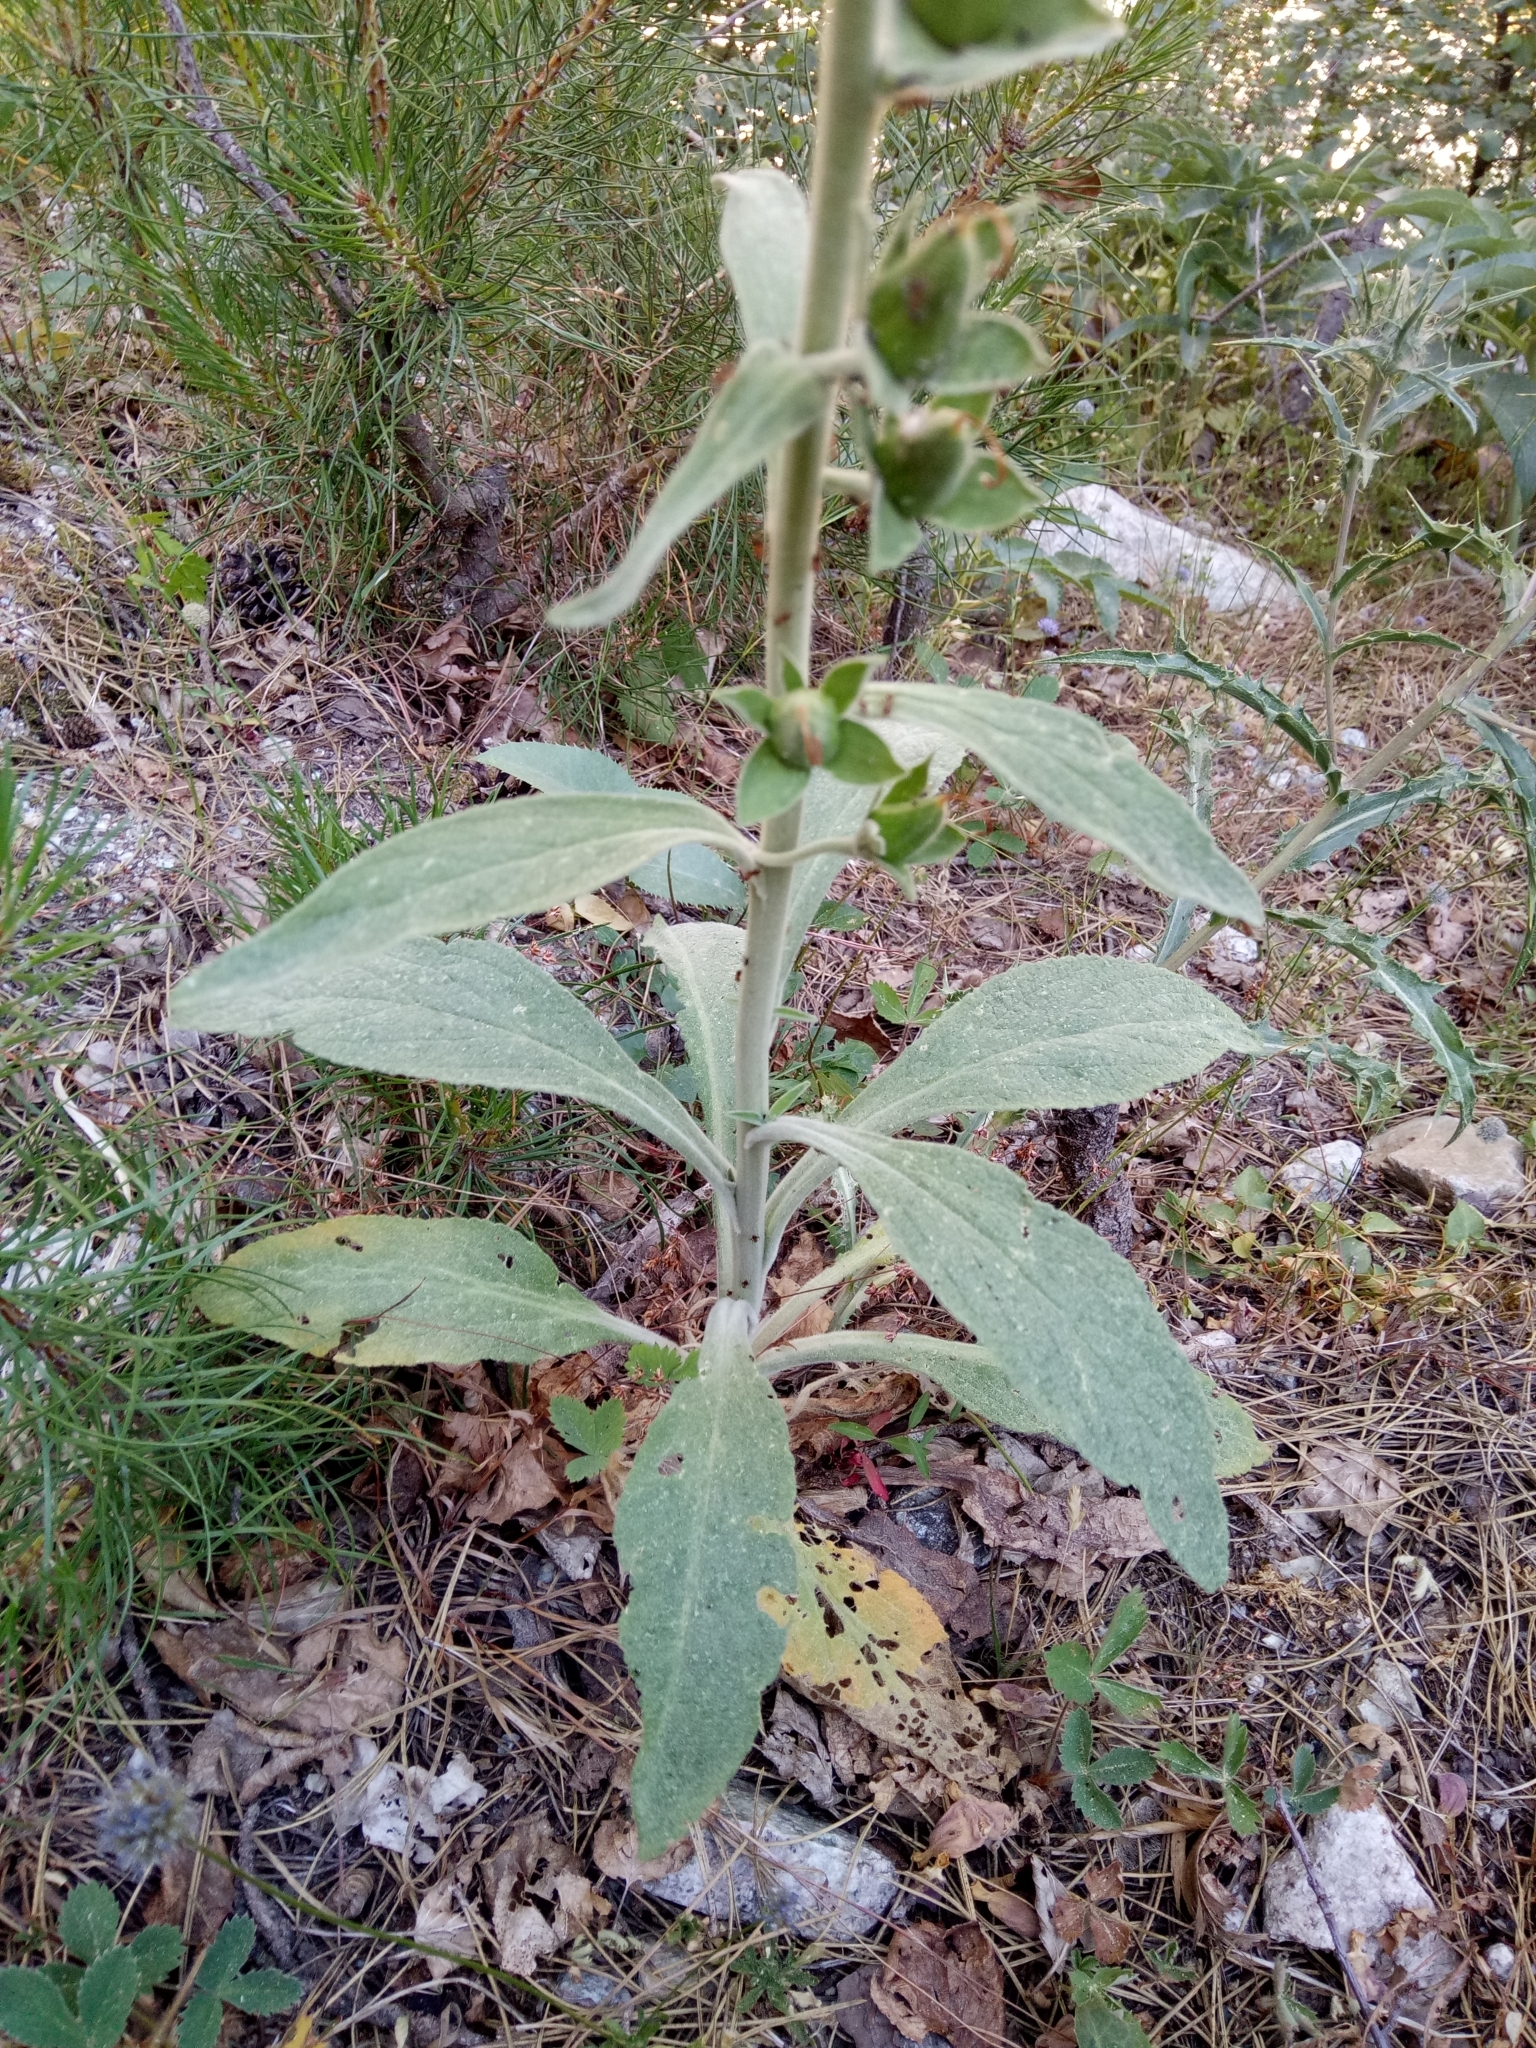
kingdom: Plantae
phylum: Tracheophyta
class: Magnoliopsida
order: Lamiales
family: Plantaginaceae
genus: Digitalis
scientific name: Digitalis purpurea
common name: Foxglove
